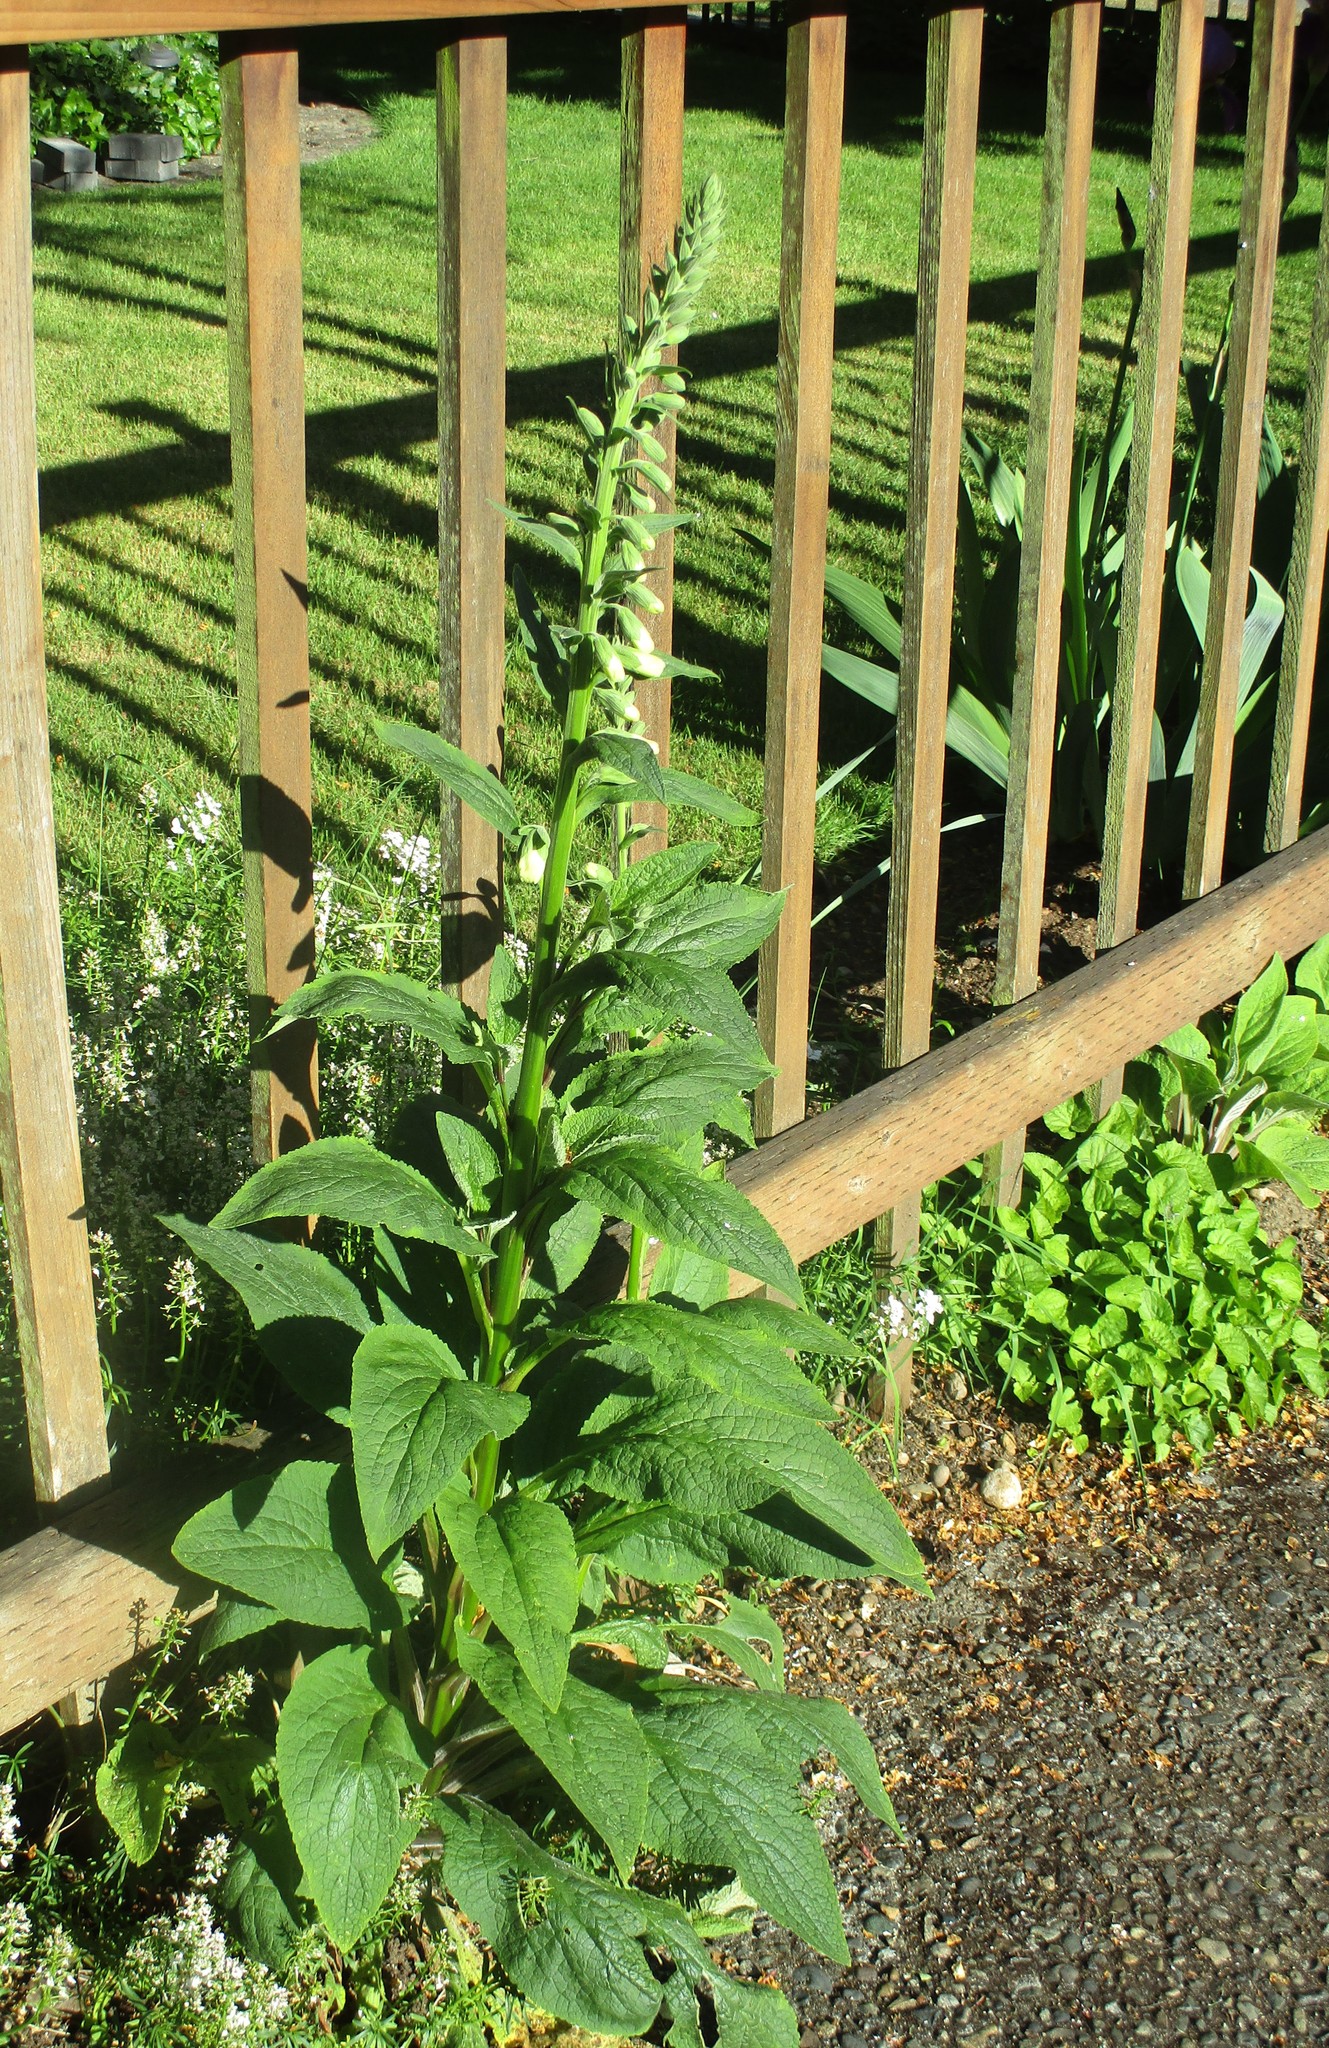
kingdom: Plantae
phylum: Tracheophyta
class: Magnoliopsida
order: Lamiales
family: Plantaginaceae
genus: Digitalis
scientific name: Digitalis purpurea
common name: Foxglove
